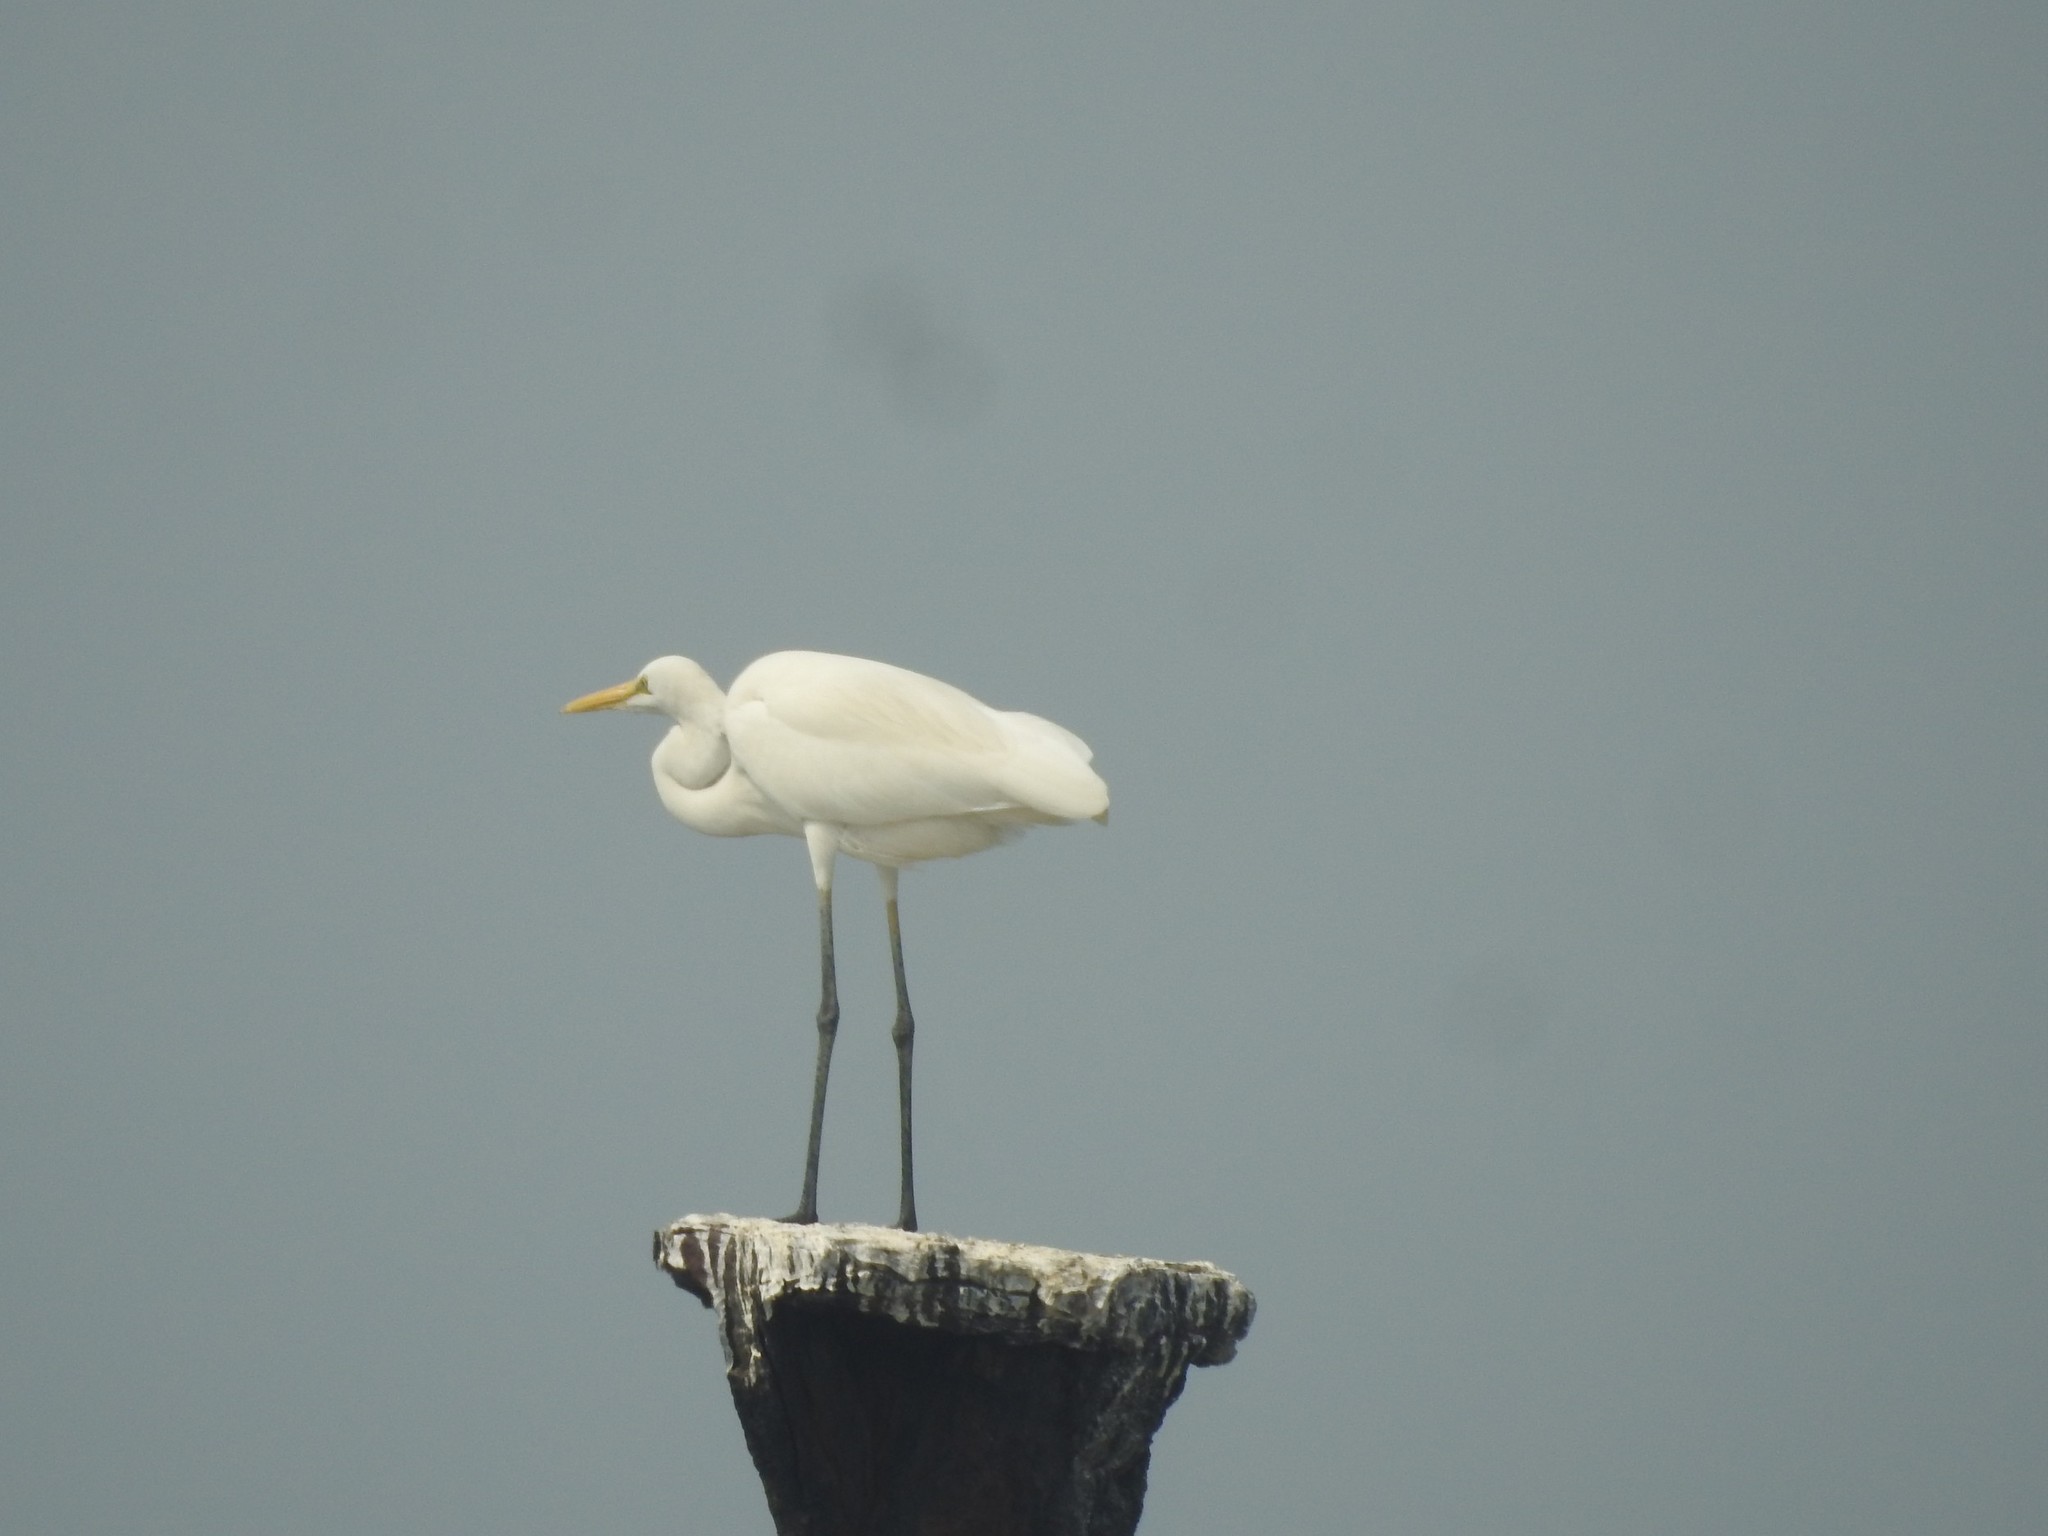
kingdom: Animalia
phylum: Chordata
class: Aves
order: Pelecaniformes
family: Ardeidae
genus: Ardea
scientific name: Ardea alba
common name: Great egret
